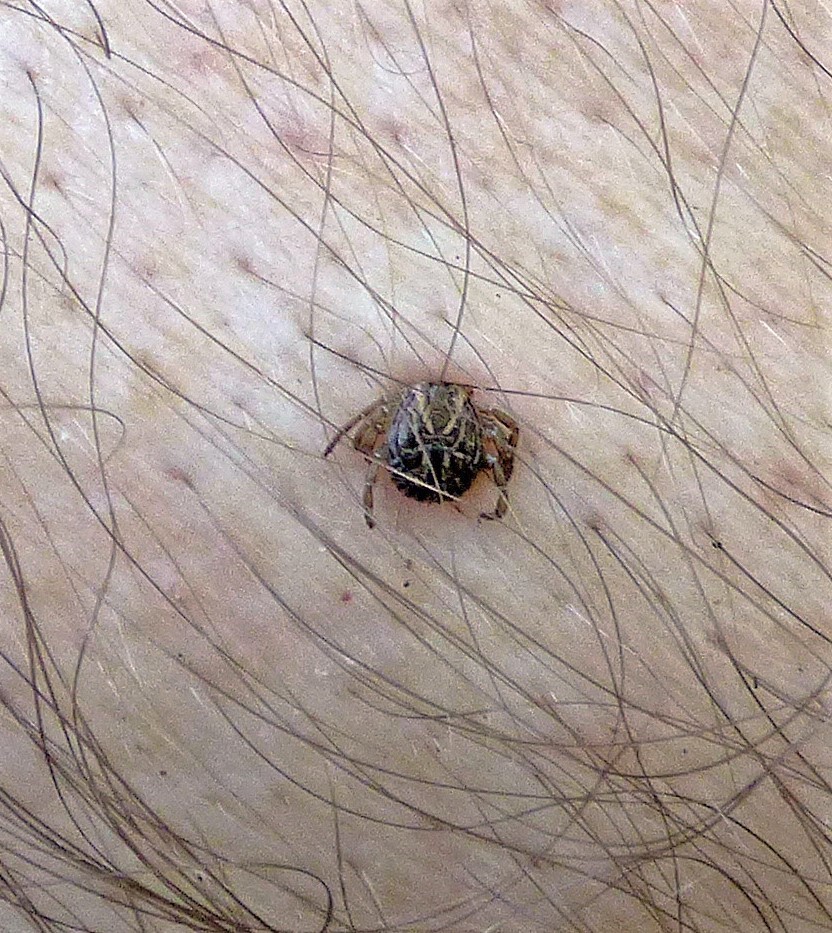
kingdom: Animalia
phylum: Arthropoda
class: Arachnida
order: Ixodida
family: Ixodidae
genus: Amblyomma
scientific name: Amblyomma cajennense
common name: Cayenne tick
